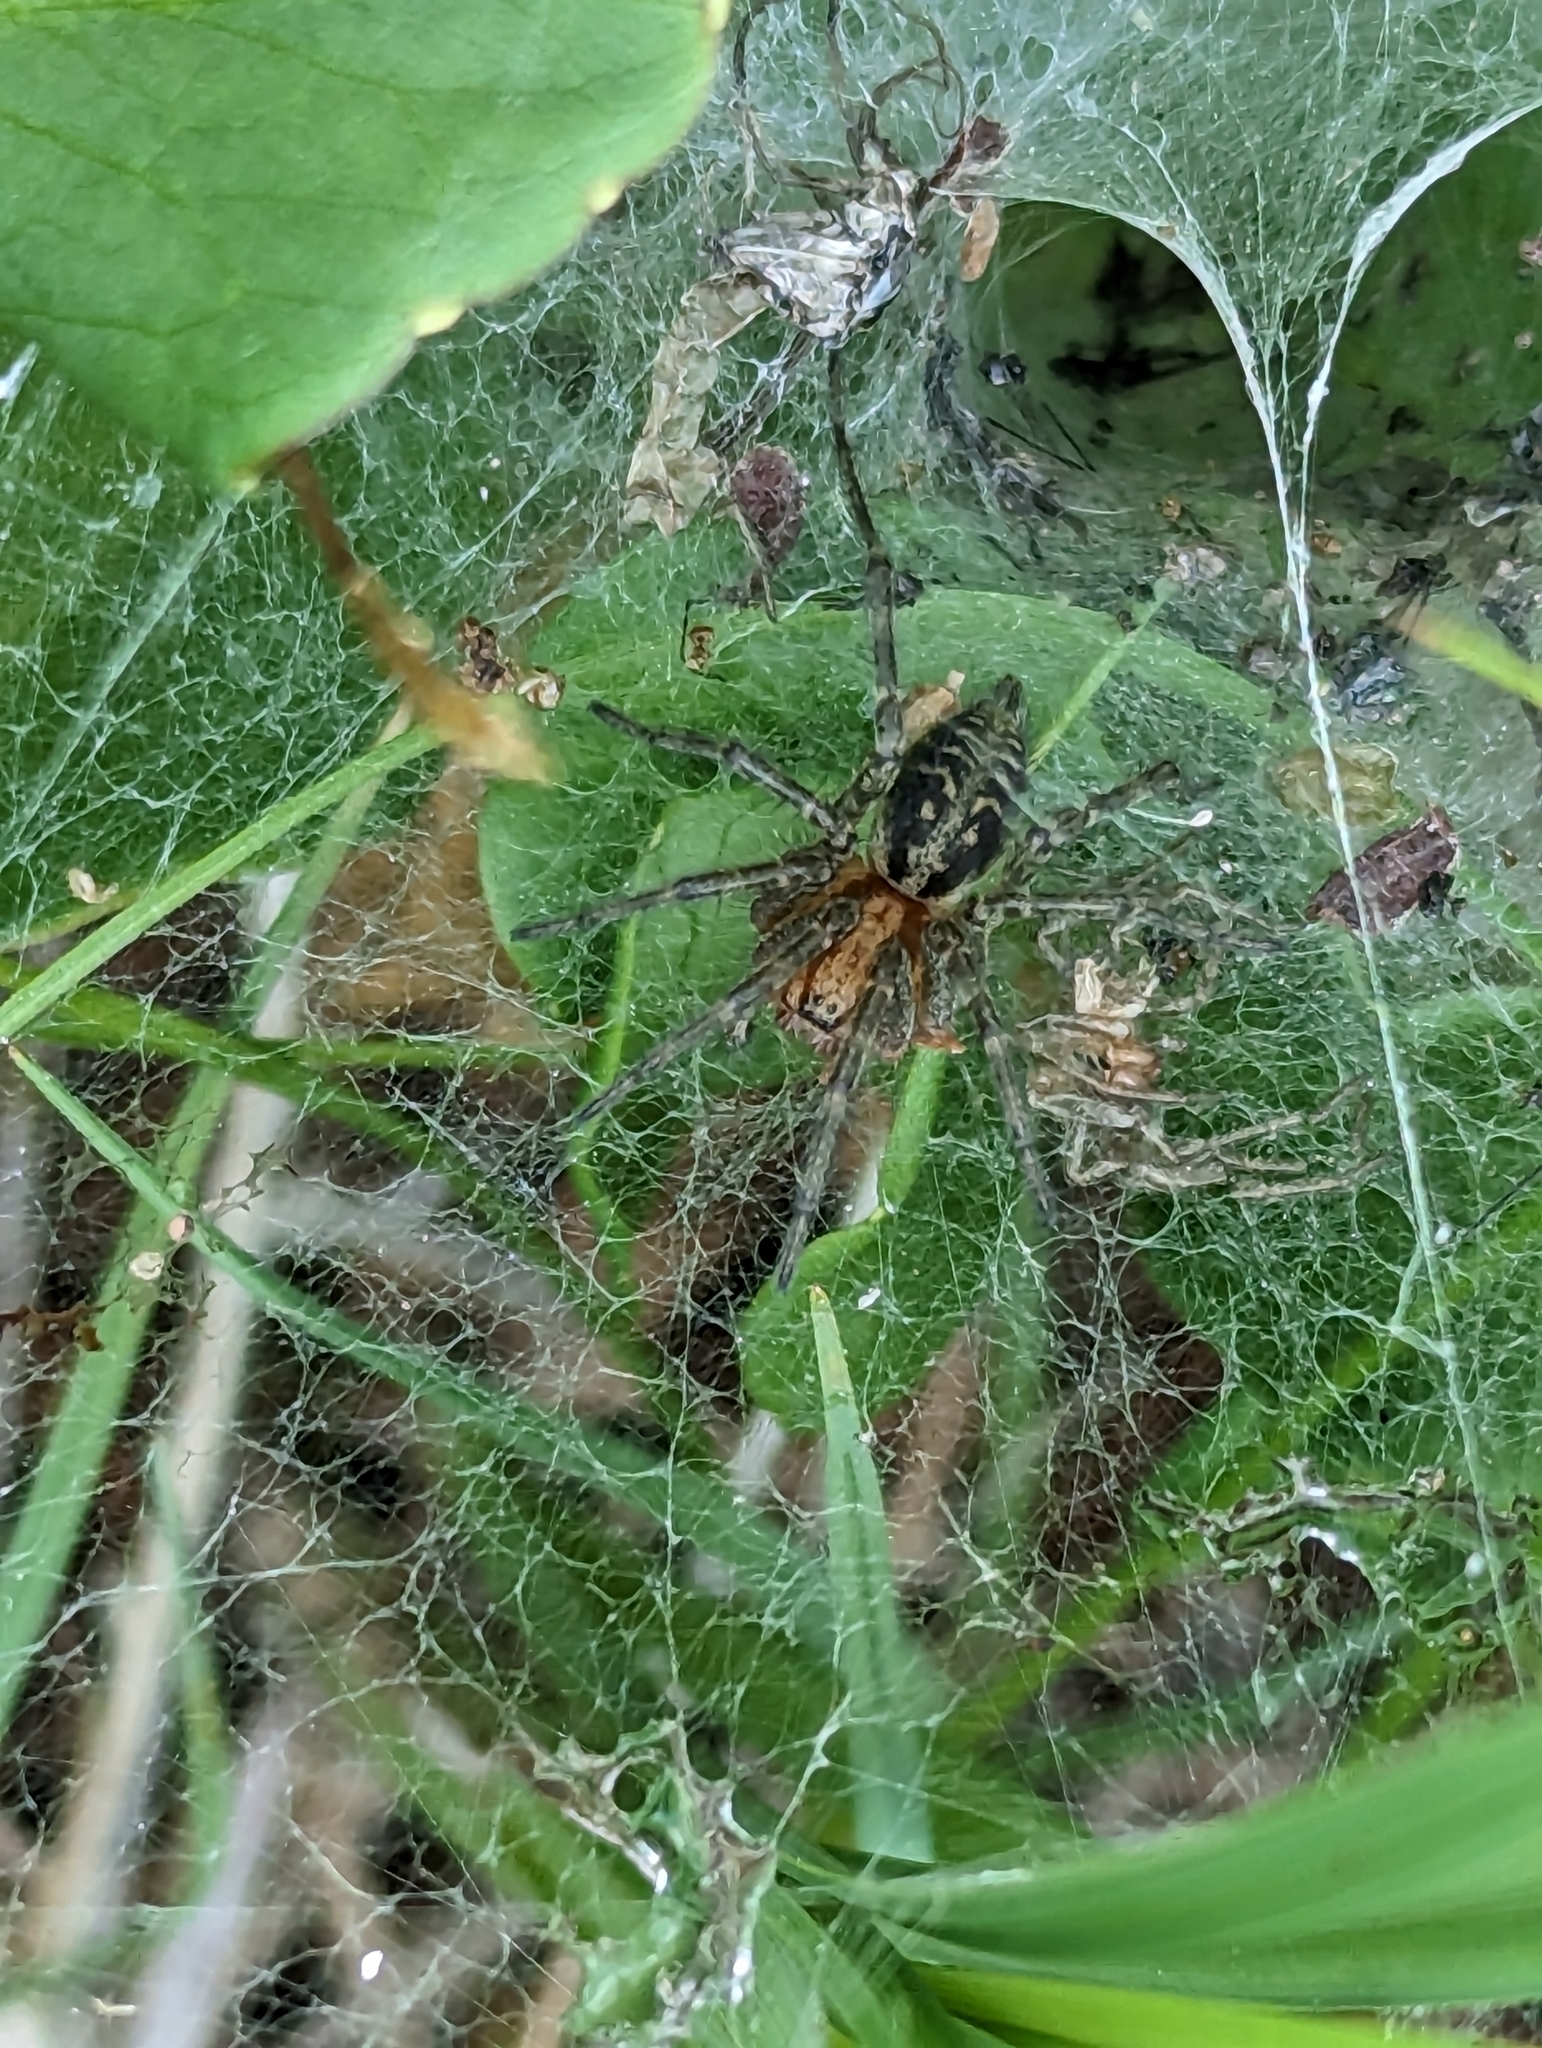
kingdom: Animalia
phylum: Arthropoda
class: Arachnida
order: Araneae
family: Agelenidae
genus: Agelena
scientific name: Agelena labyrinthica
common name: Labyrinth spider
